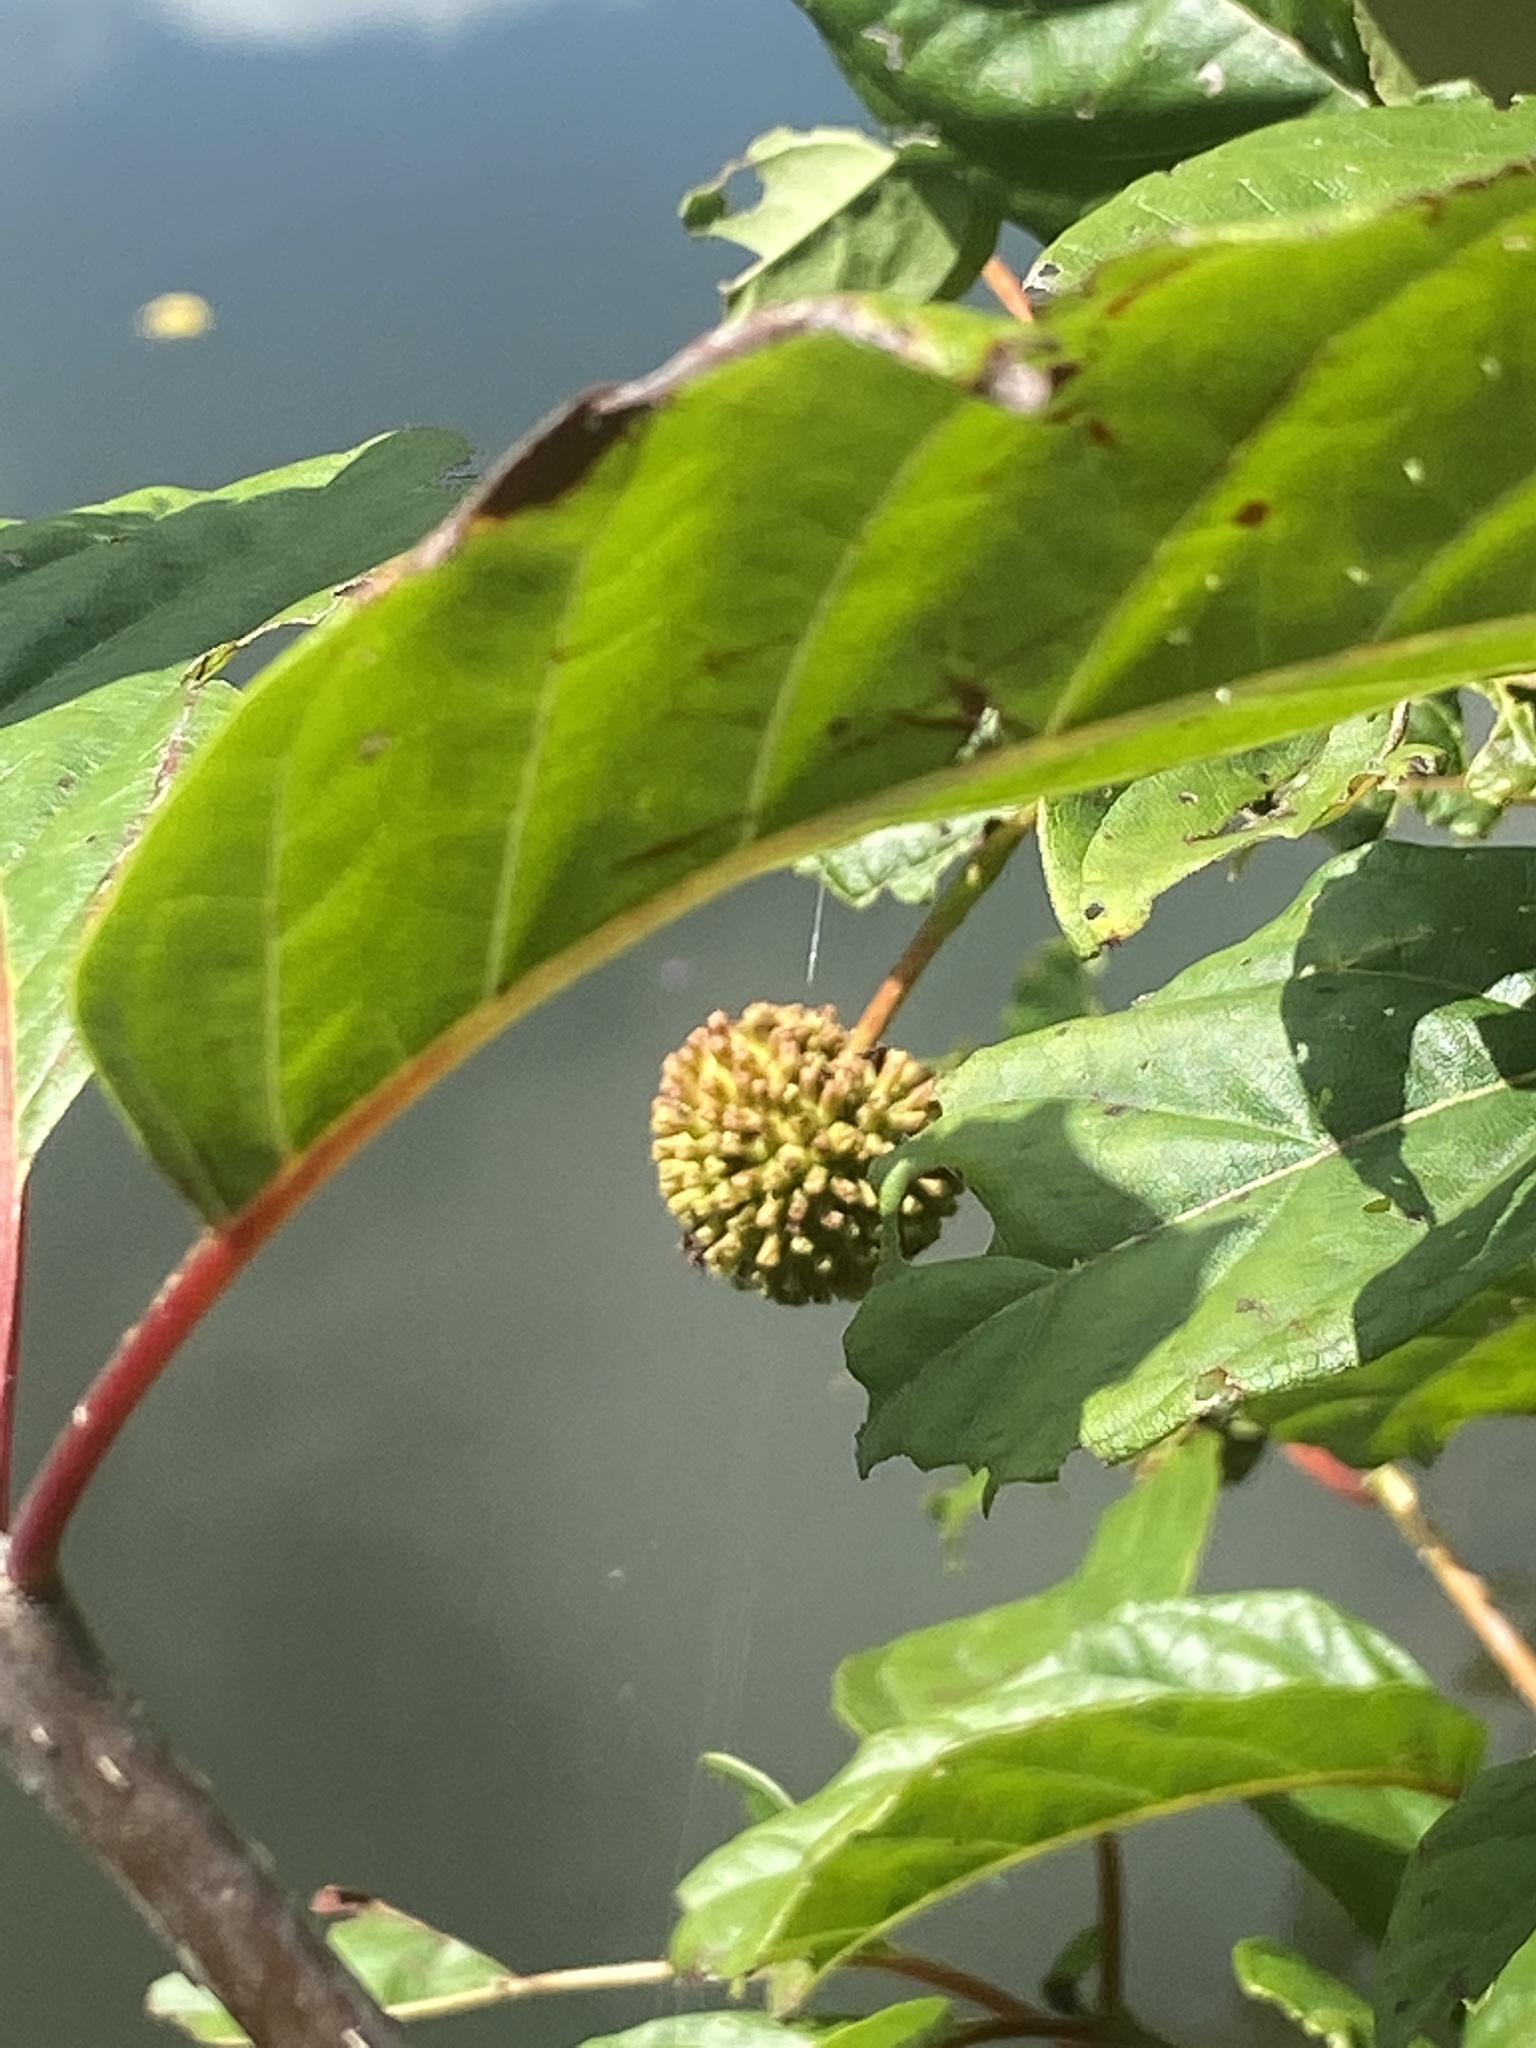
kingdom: Plantae
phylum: Tracheophyta
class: Magnoliopsida
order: Gentianales
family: Rubiaceae
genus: Cephalanthus
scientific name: Cephalanthus occidentalis
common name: Button-willow
